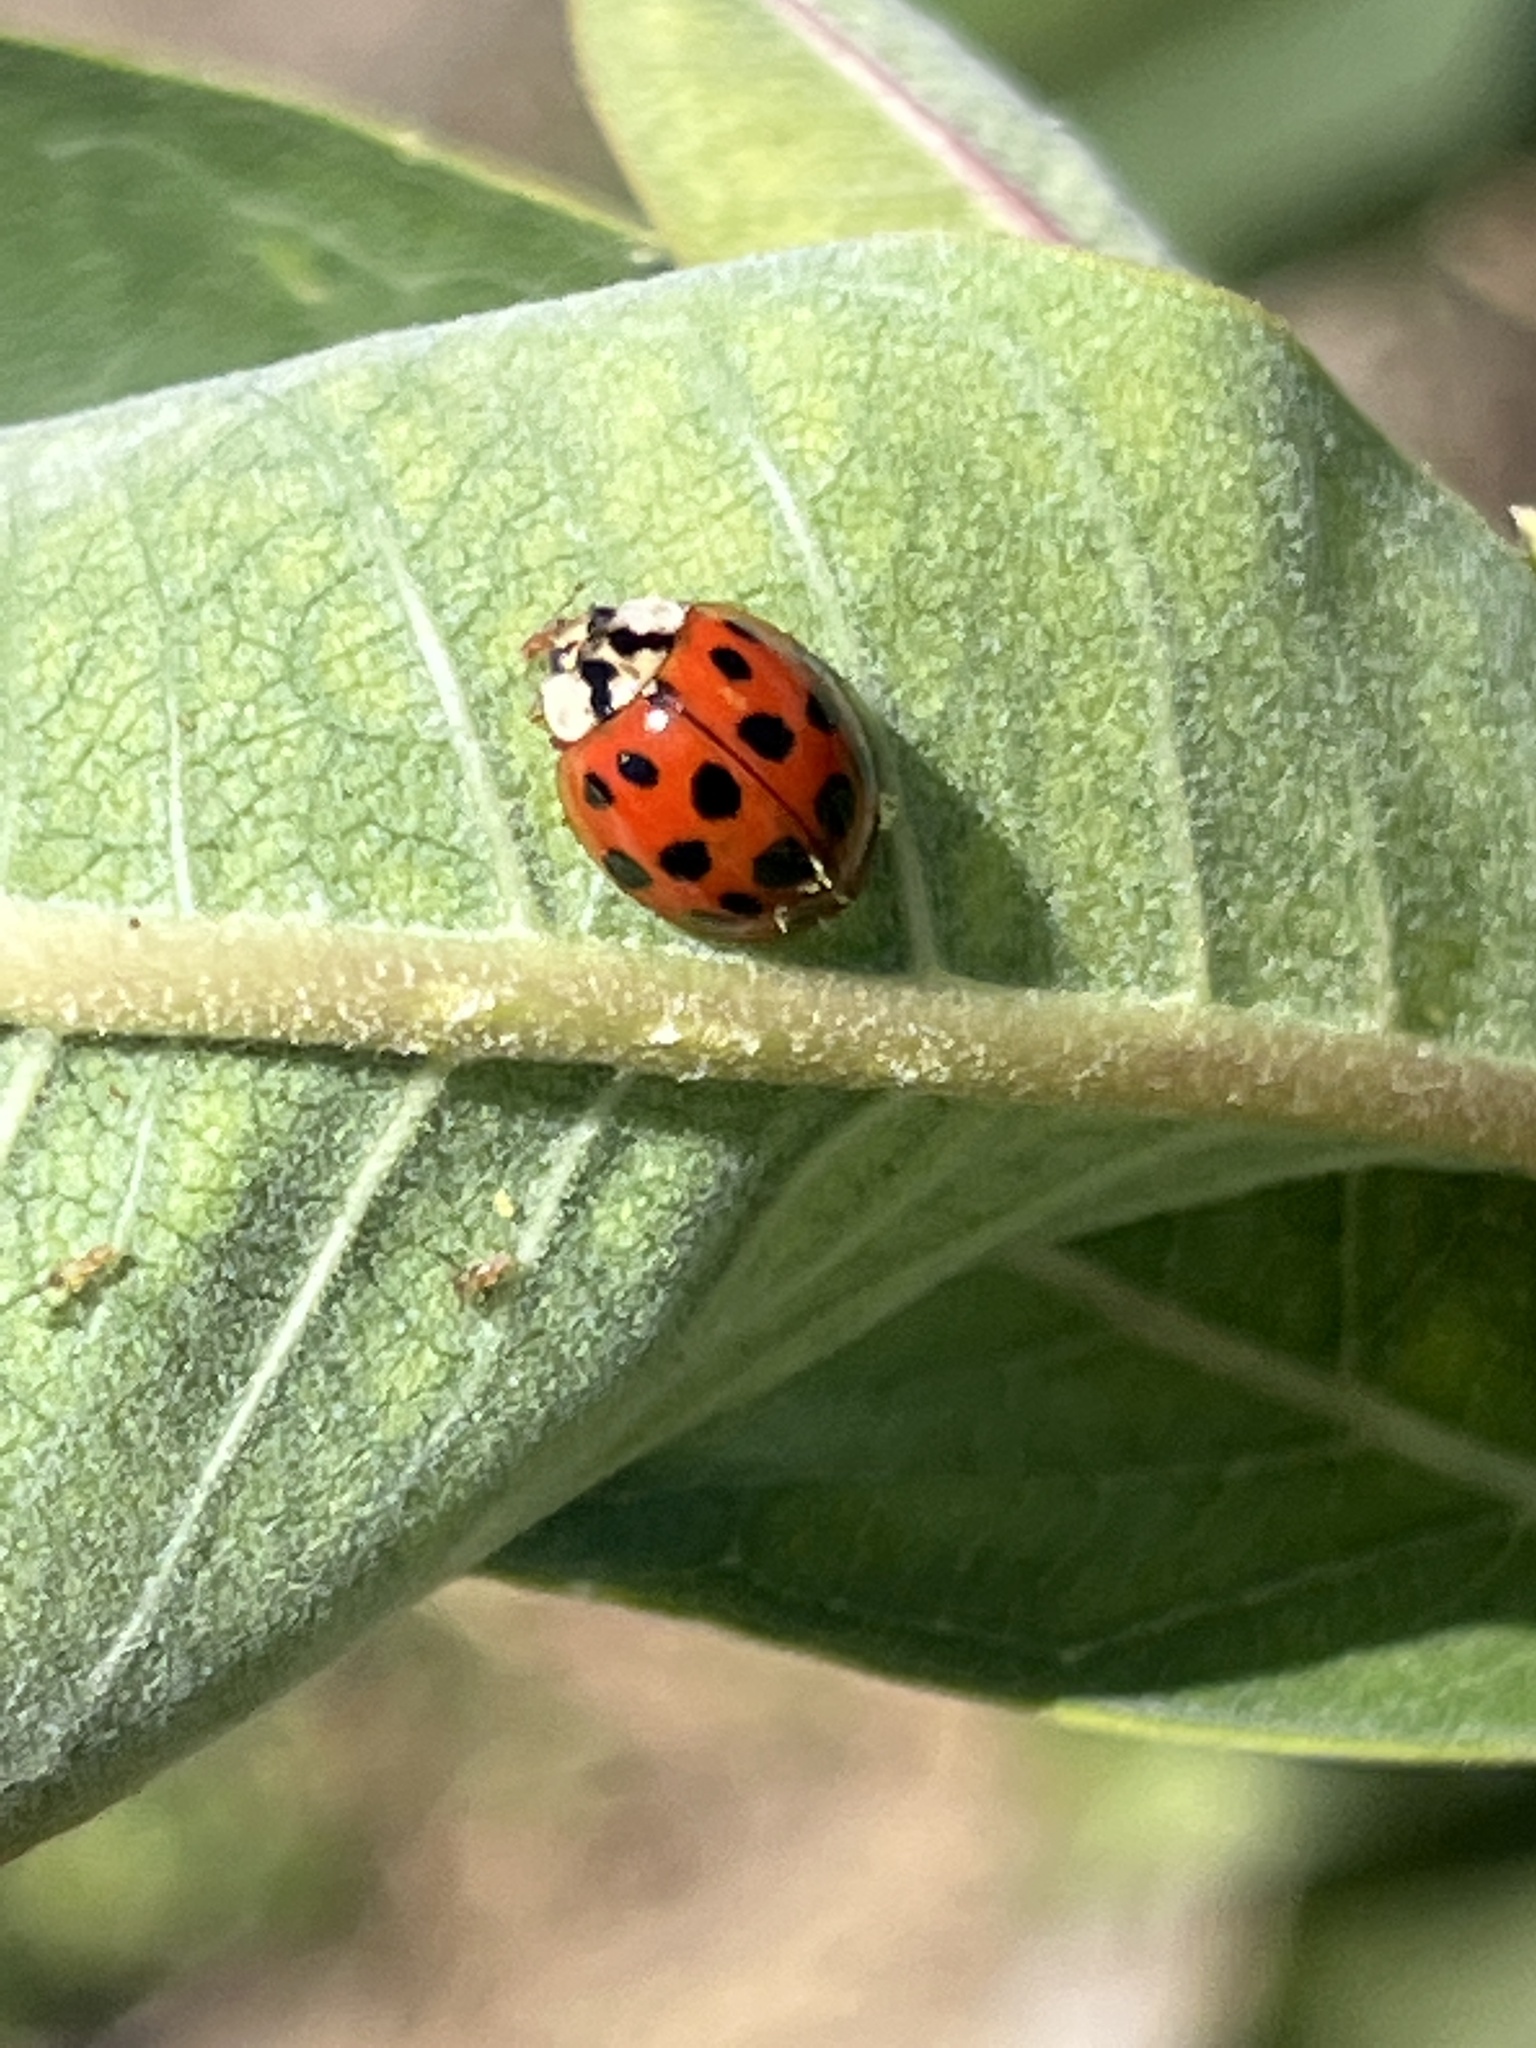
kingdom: Animalia
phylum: Arthropoda
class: Insecta
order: Coleoptera
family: Coccinellidae
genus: Harmonia
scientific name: Harmonia axyridis
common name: Harlequin ladybird
